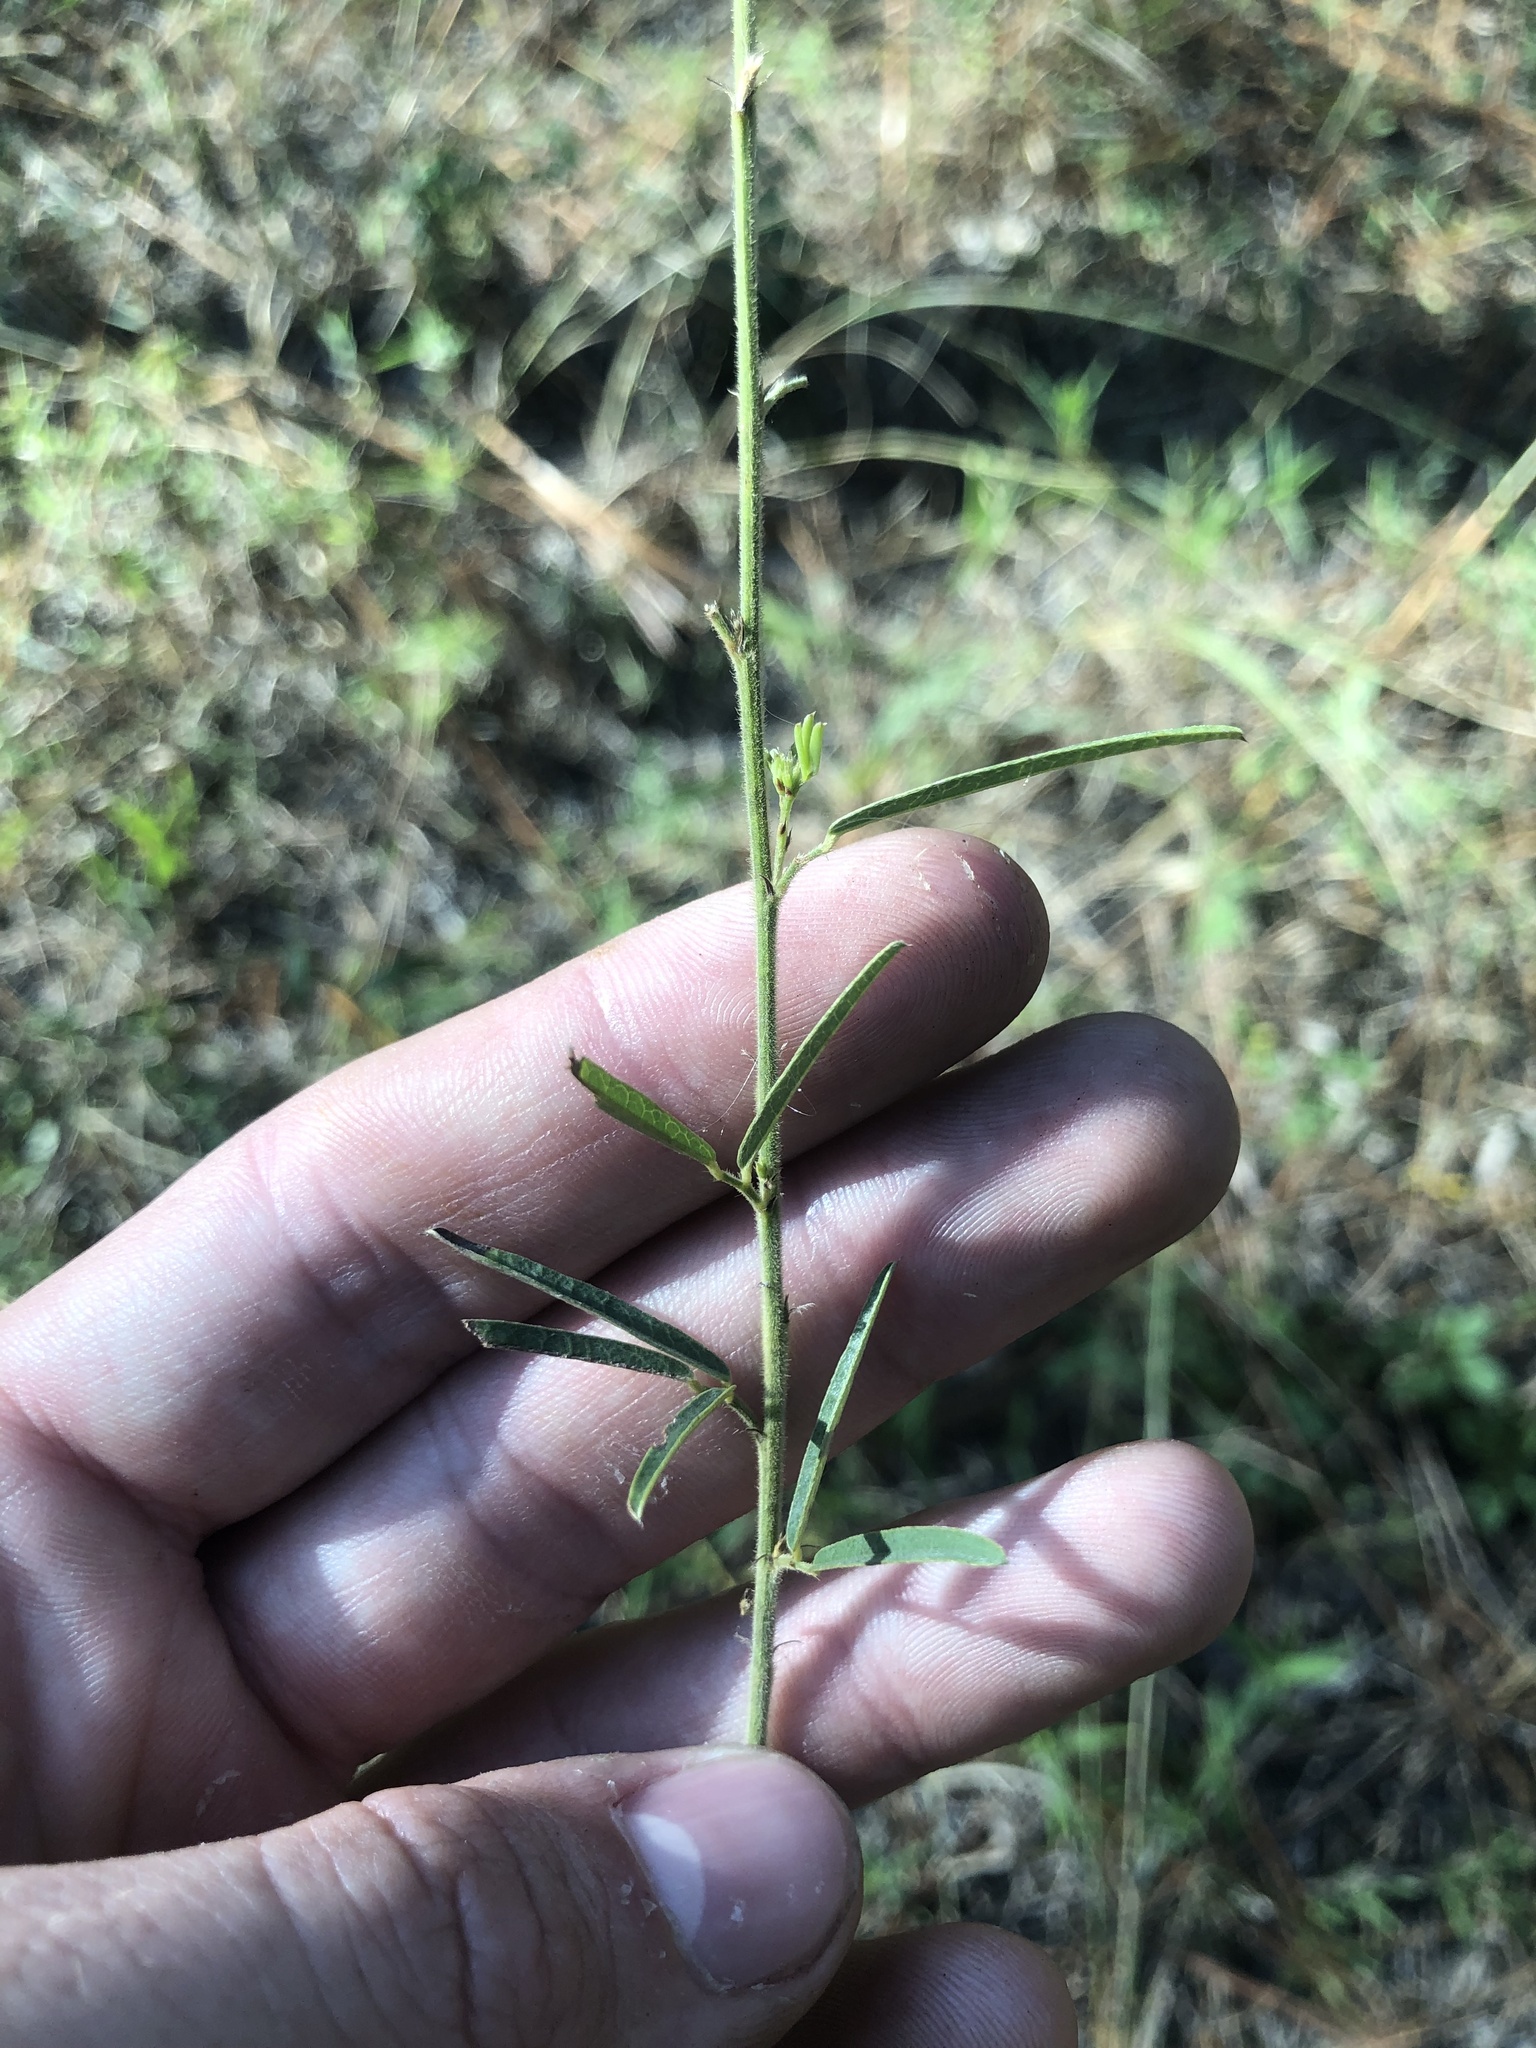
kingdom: Plantae
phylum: Tracheophyta
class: Magnoliopsida
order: Fabales
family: Fabaceae
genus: Lespedeza
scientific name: Lespedeza angustifolia
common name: Narrow-leaf bush-clover
